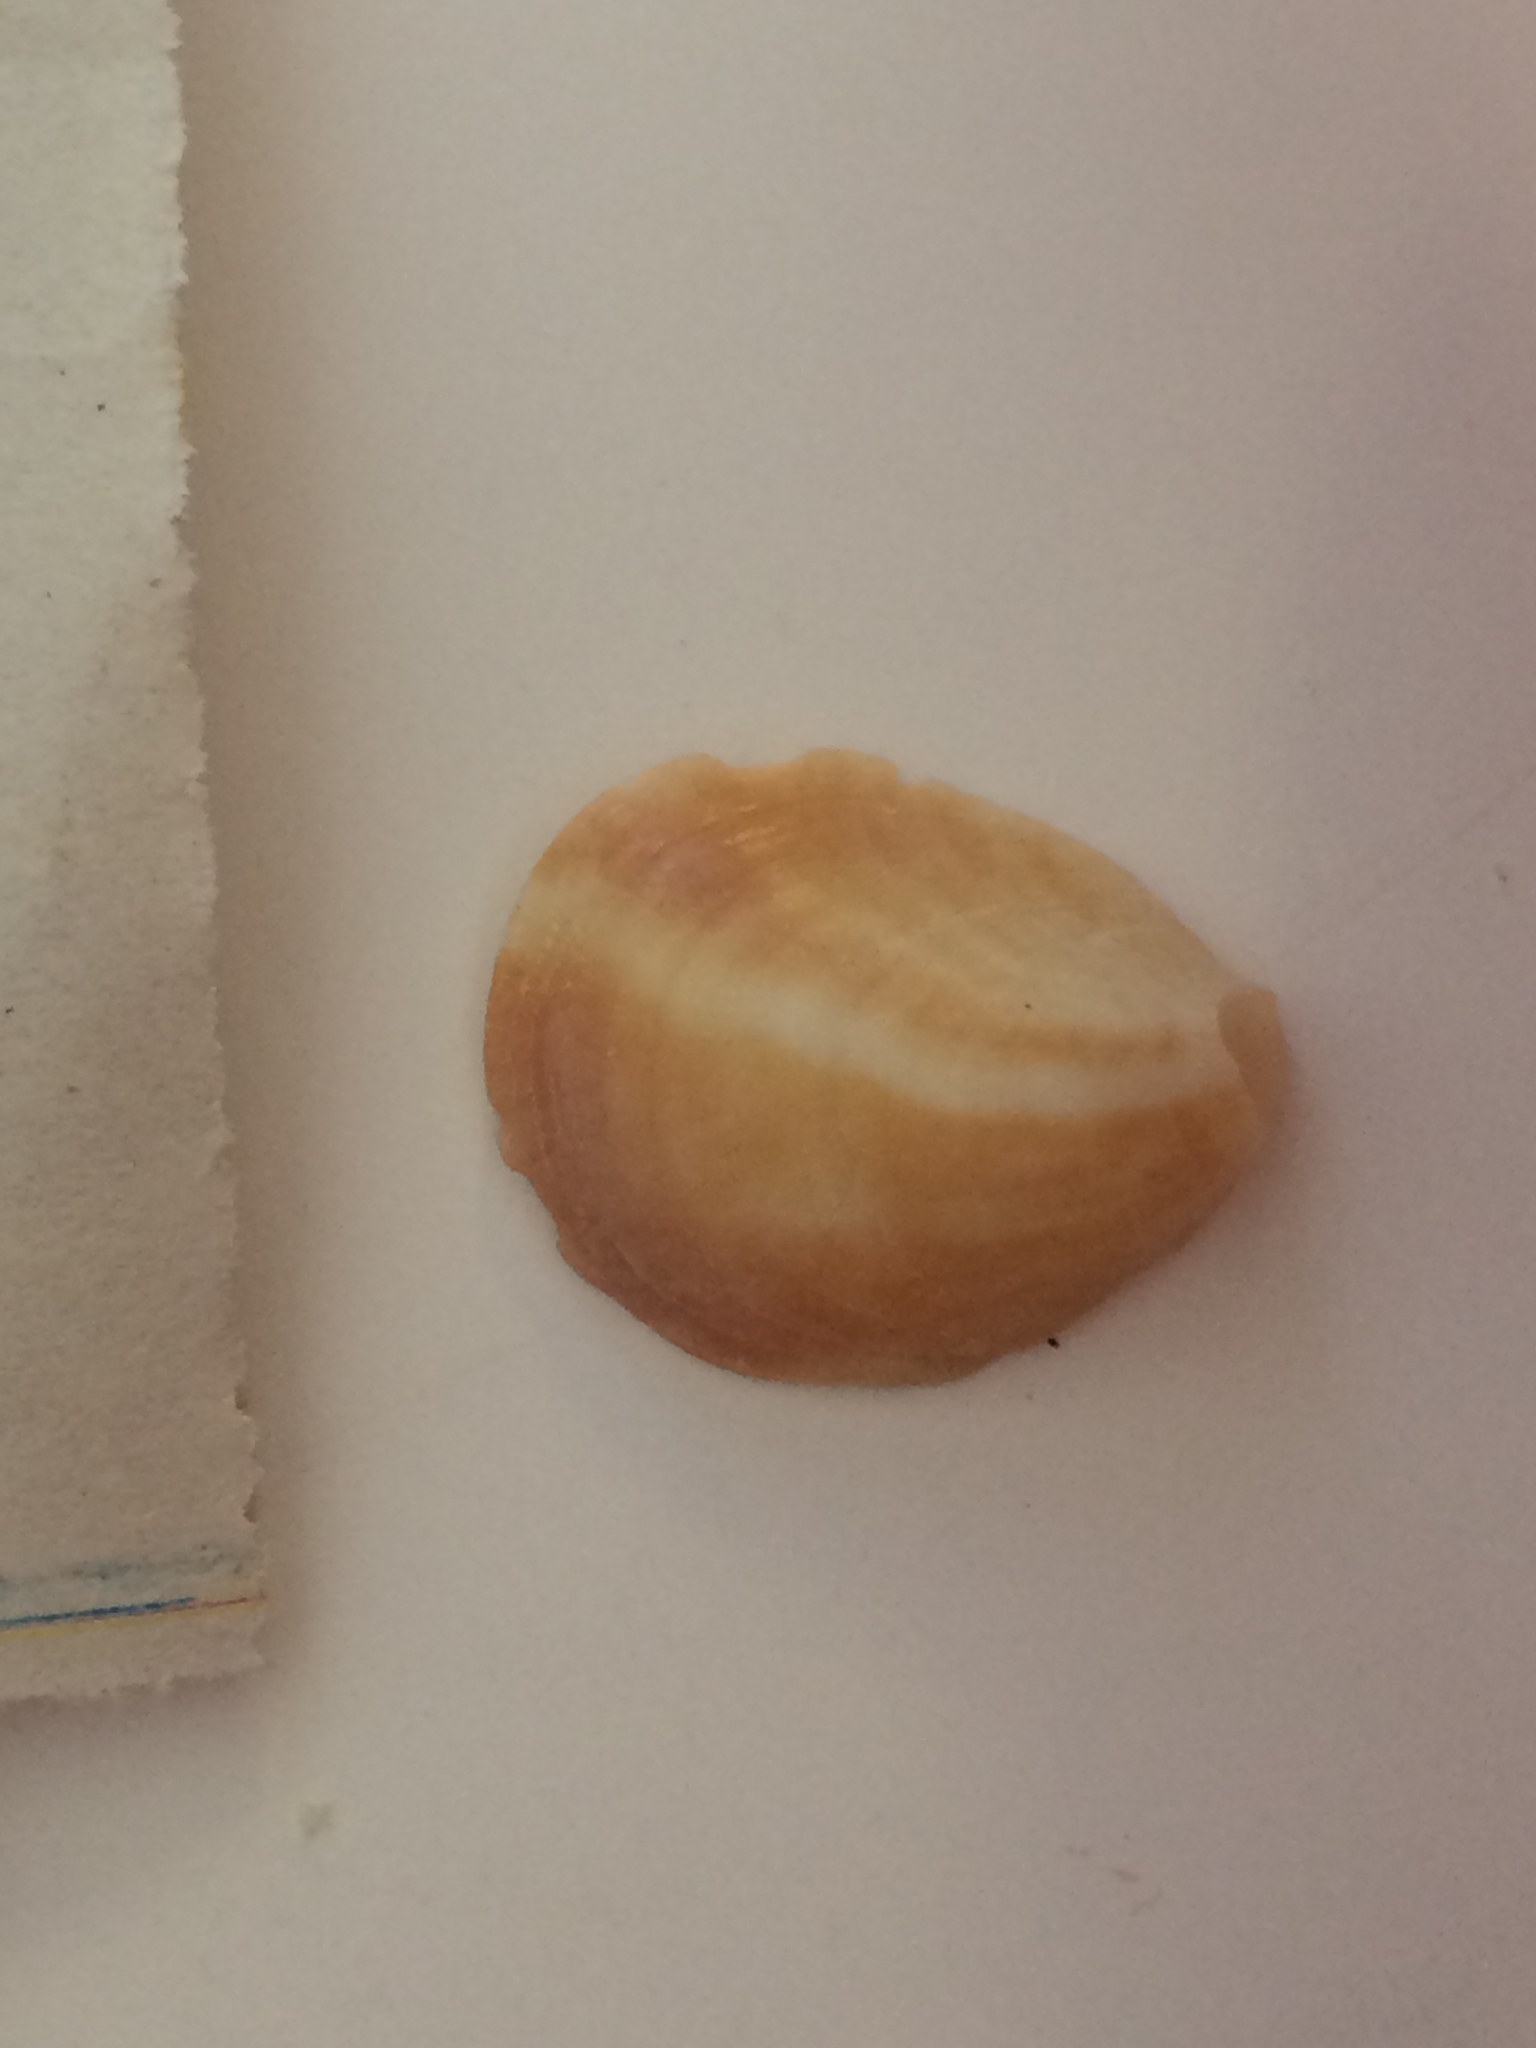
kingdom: Animalia
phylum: Mollusca
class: Gastropoda
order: Littorinimorpha
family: Calyptraeidae
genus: Crepidula
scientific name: Crepidula fornicata
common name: Slipper limpet
